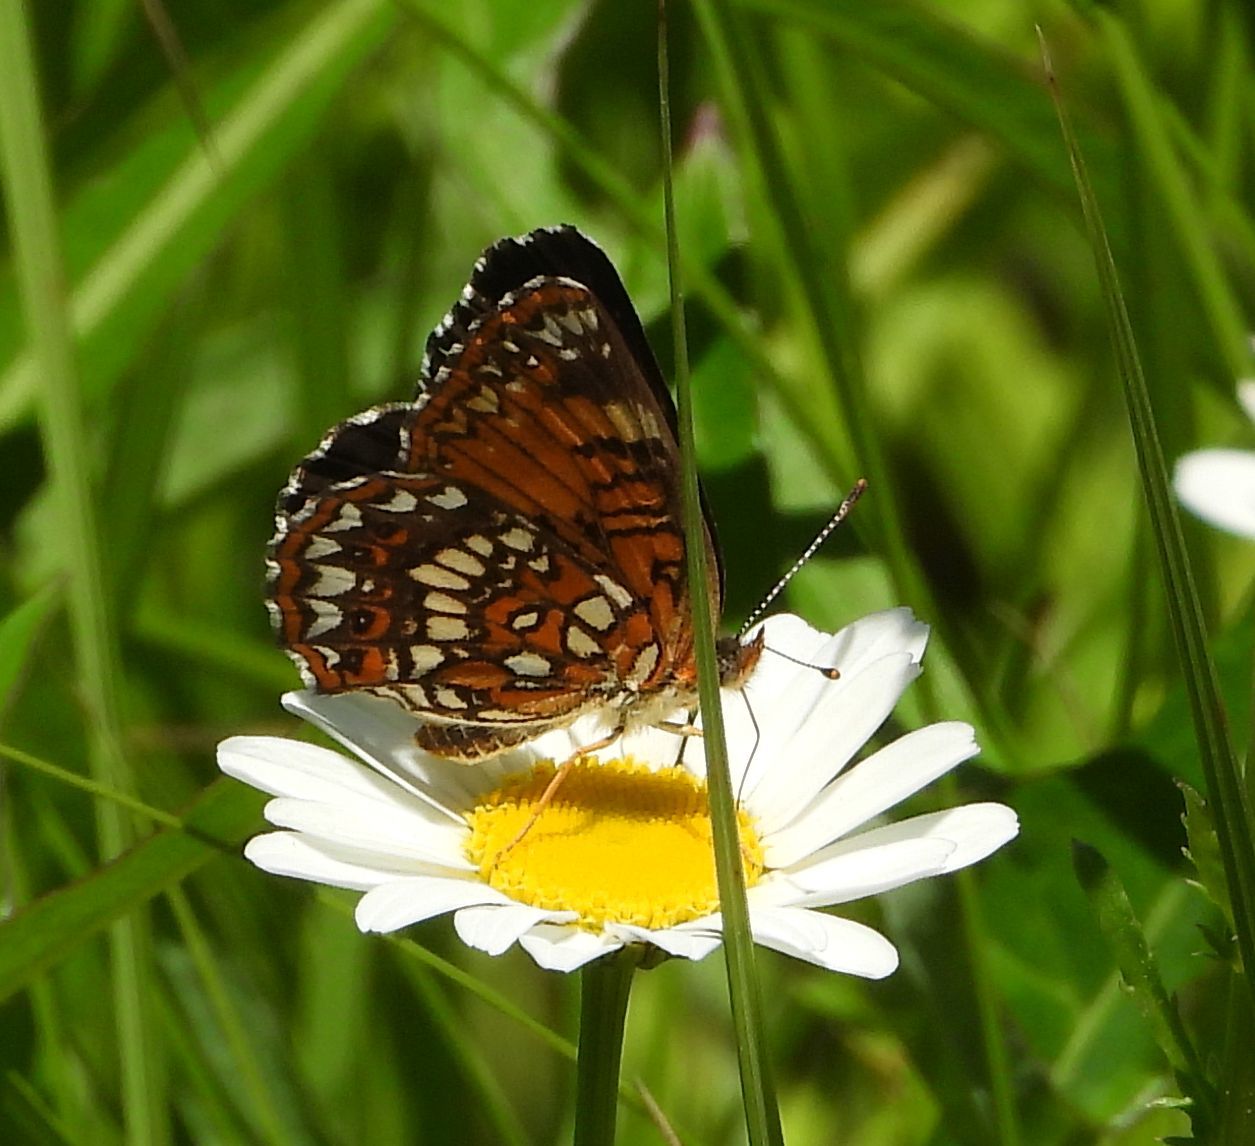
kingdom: Animalia
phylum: Arthropoda
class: Insecta
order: Lepidoptera
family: Nymphalidae
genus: Chlosyne
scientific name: Chlosyne harrisii
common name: Harris's checkerspot
